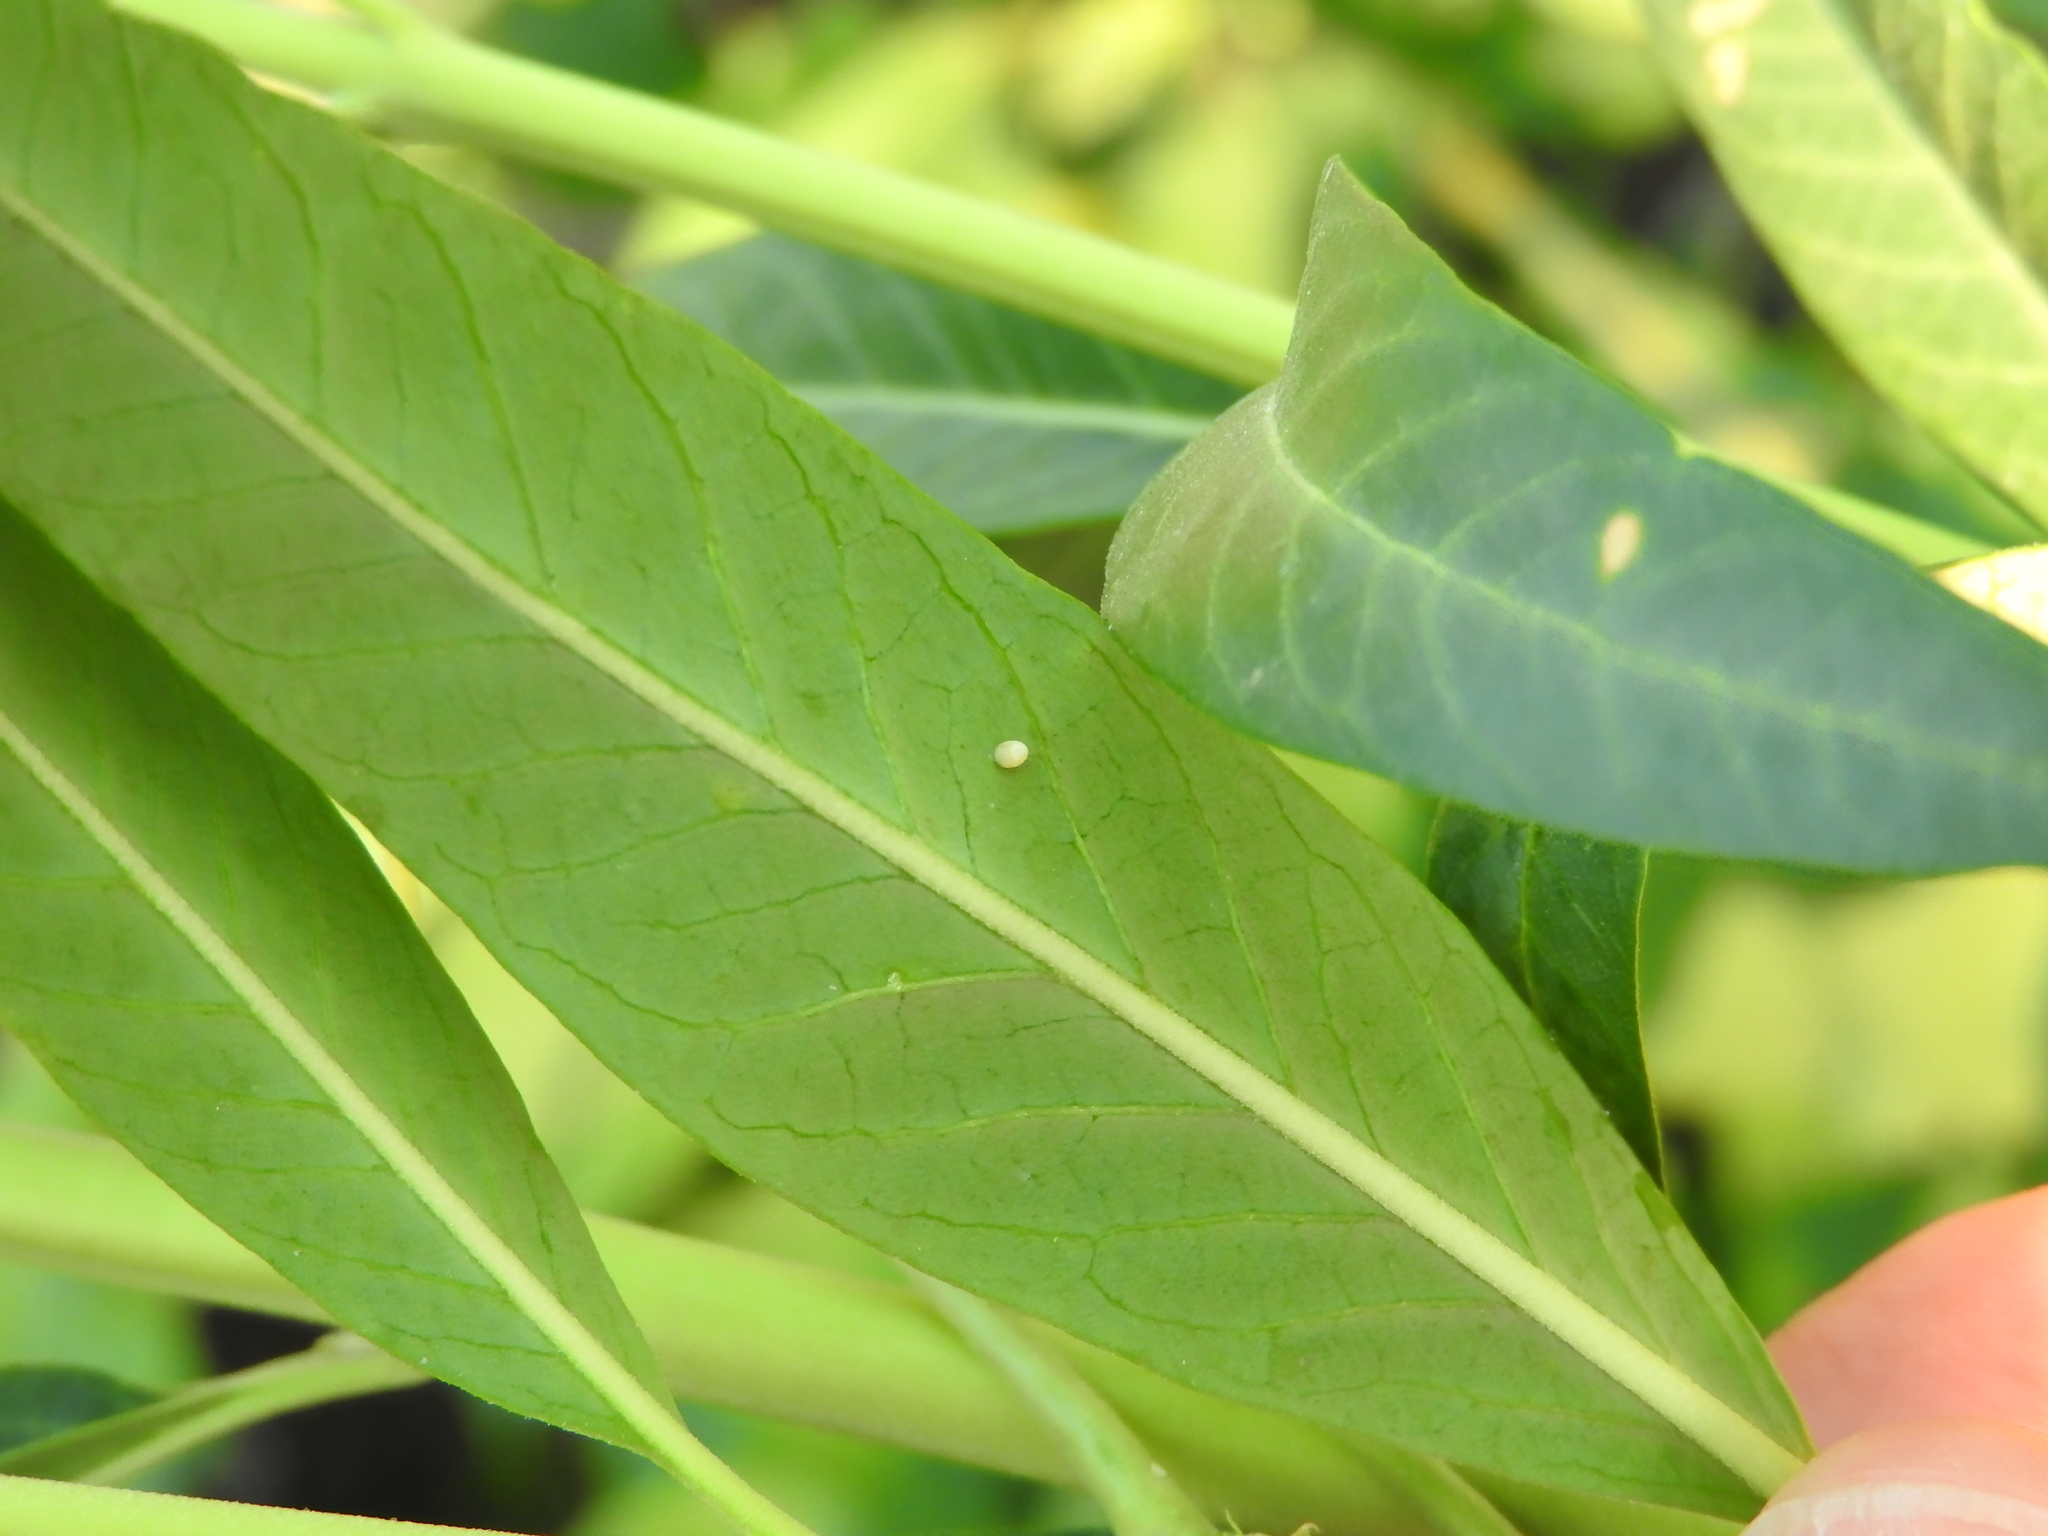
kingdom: Animalia
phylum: Arthropoda
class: Insecta
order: Lepidoptera
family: Nymphalidae
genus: Danaus
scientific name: Danaus plexippus
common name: Monarch
